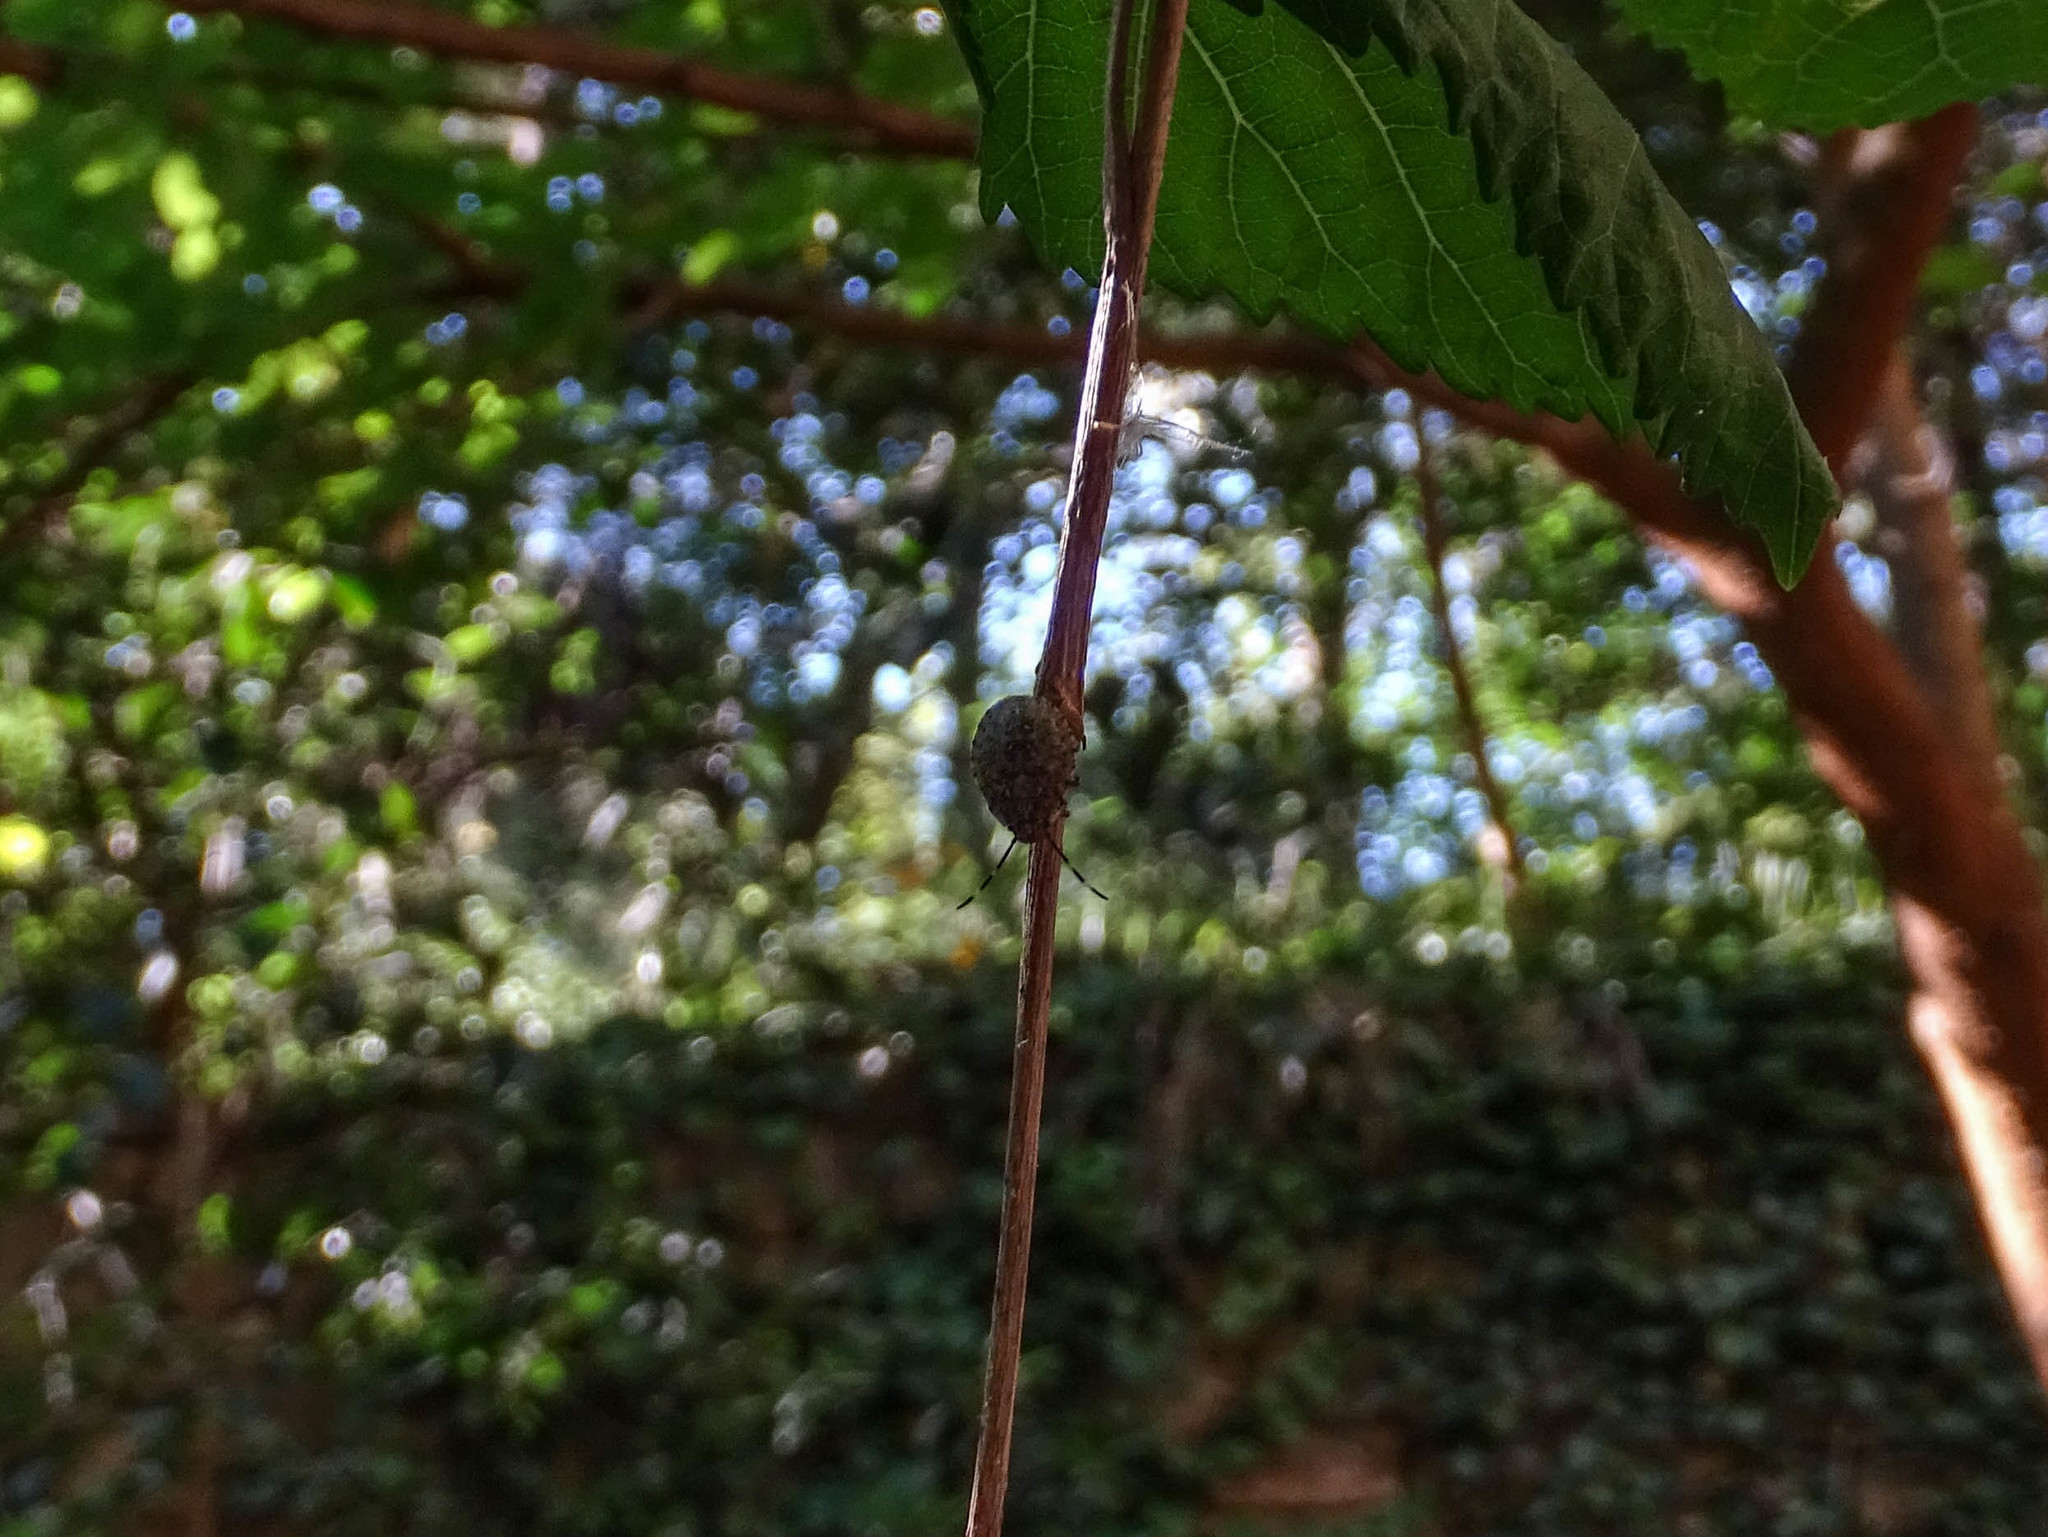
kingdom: Animalia
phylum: Arthropoda
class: Insecta
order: Hemiptera
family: Pentatomidae
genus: Rhaphigaster
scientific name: Rhaphigaster nebulosa
